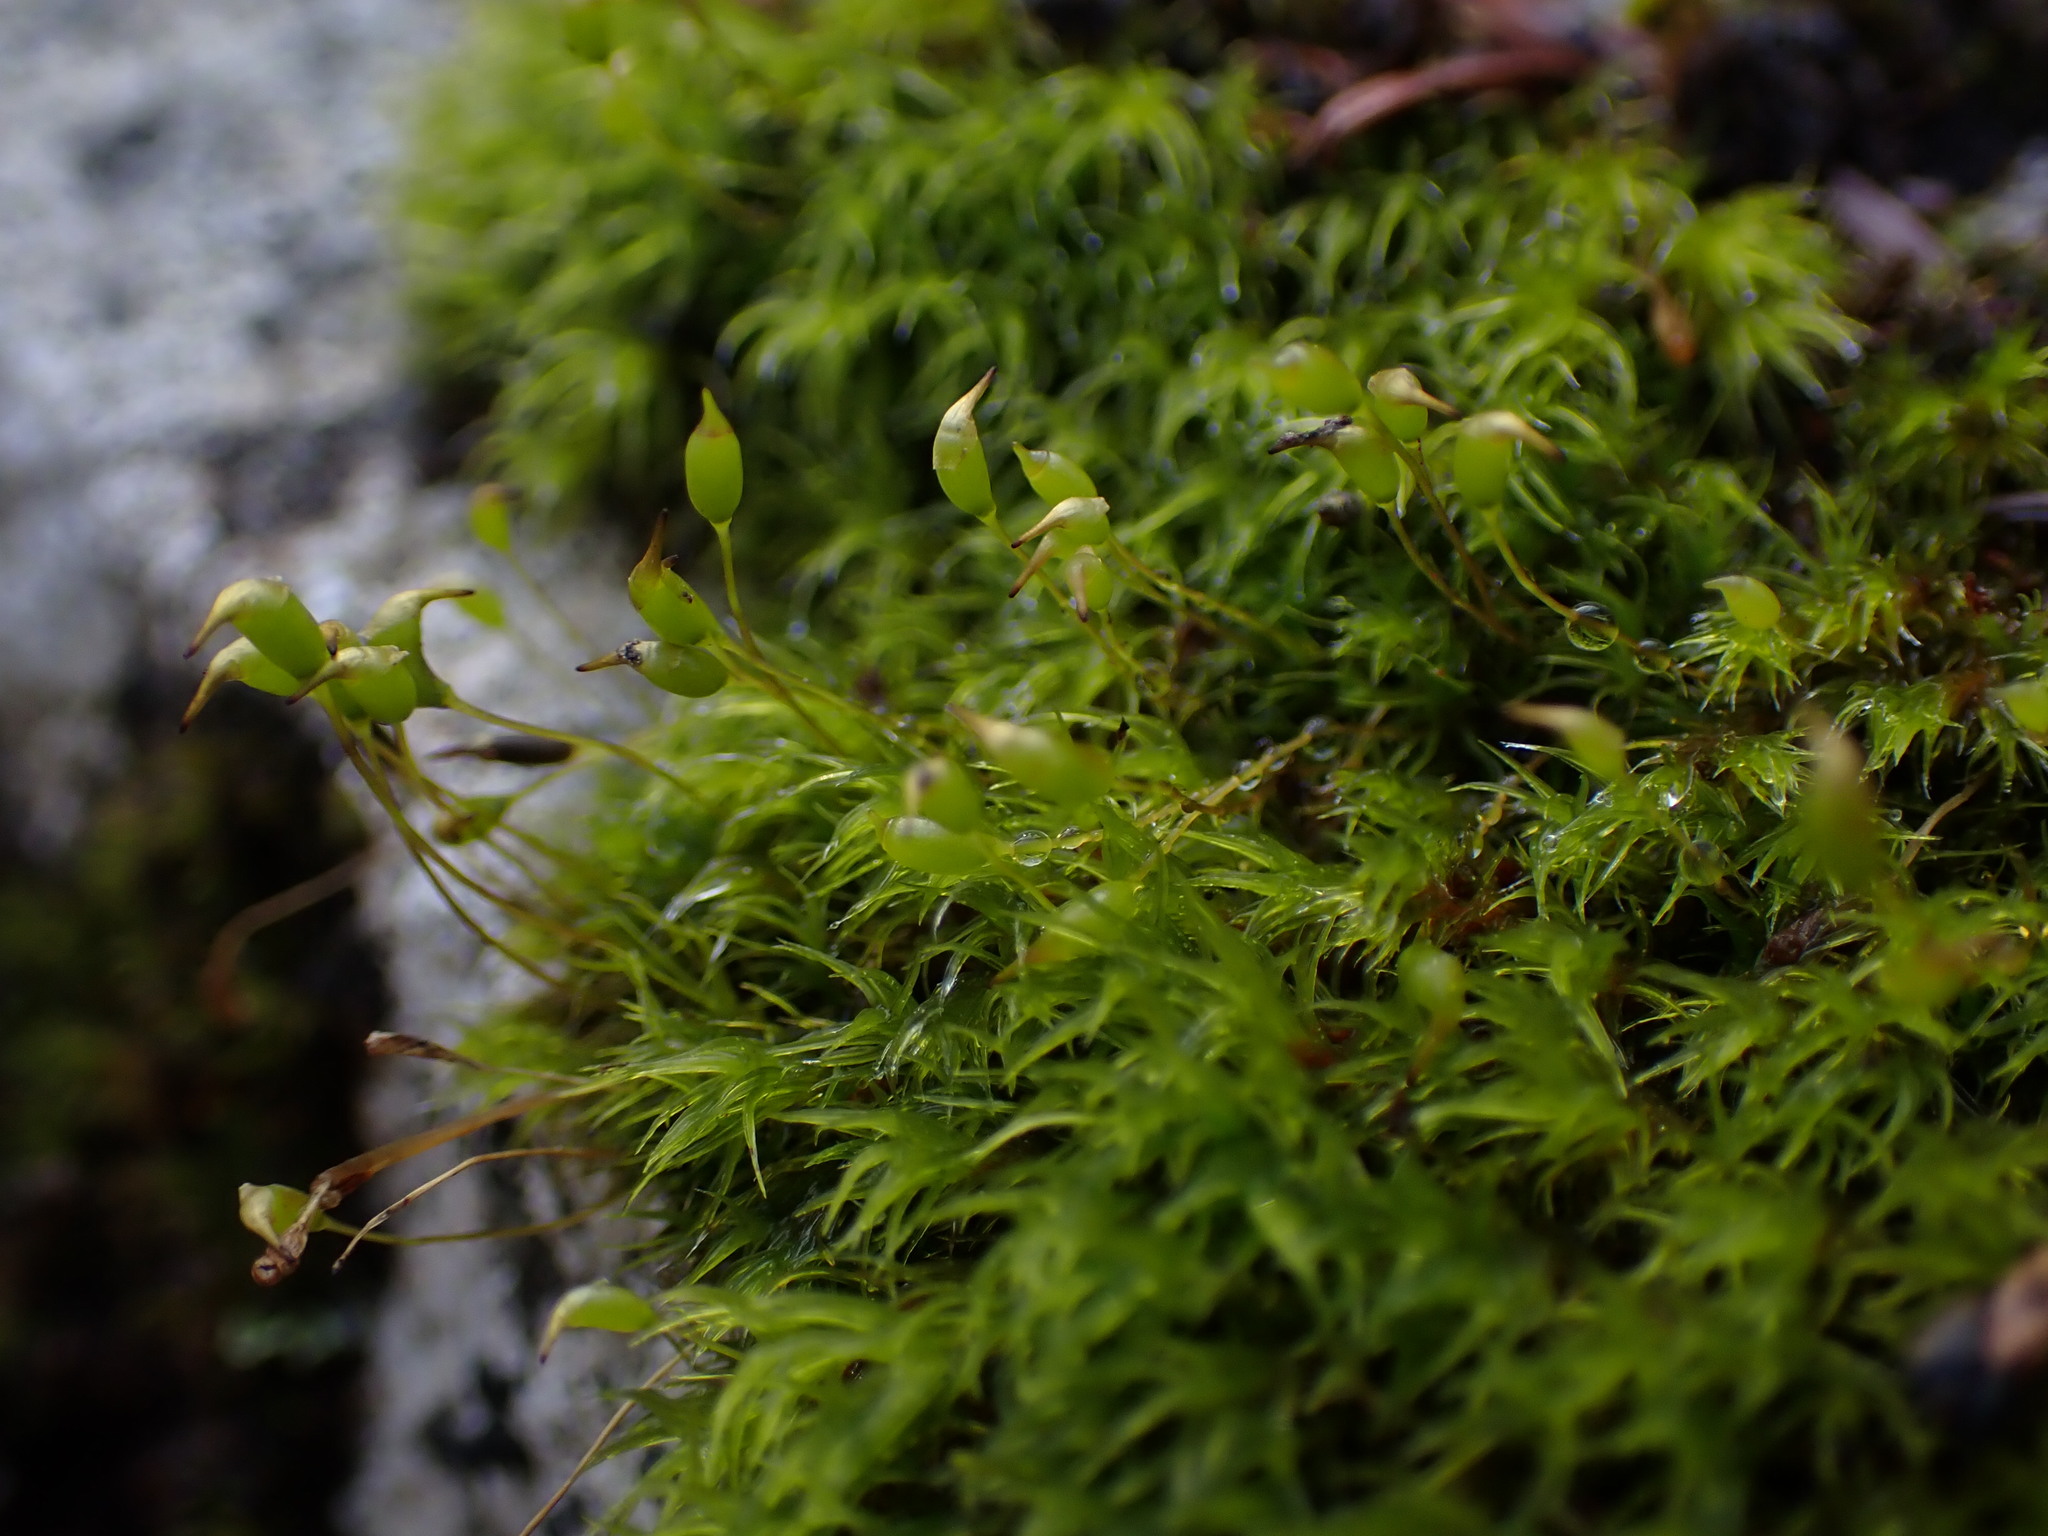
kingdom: Plantae
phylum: Bryophyta
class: Bryopsida
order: Scouleriales
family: Hymenolomataceae
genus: Hymenoloma
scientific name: Hymenoloma crispulum
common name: Mountain pincushion
